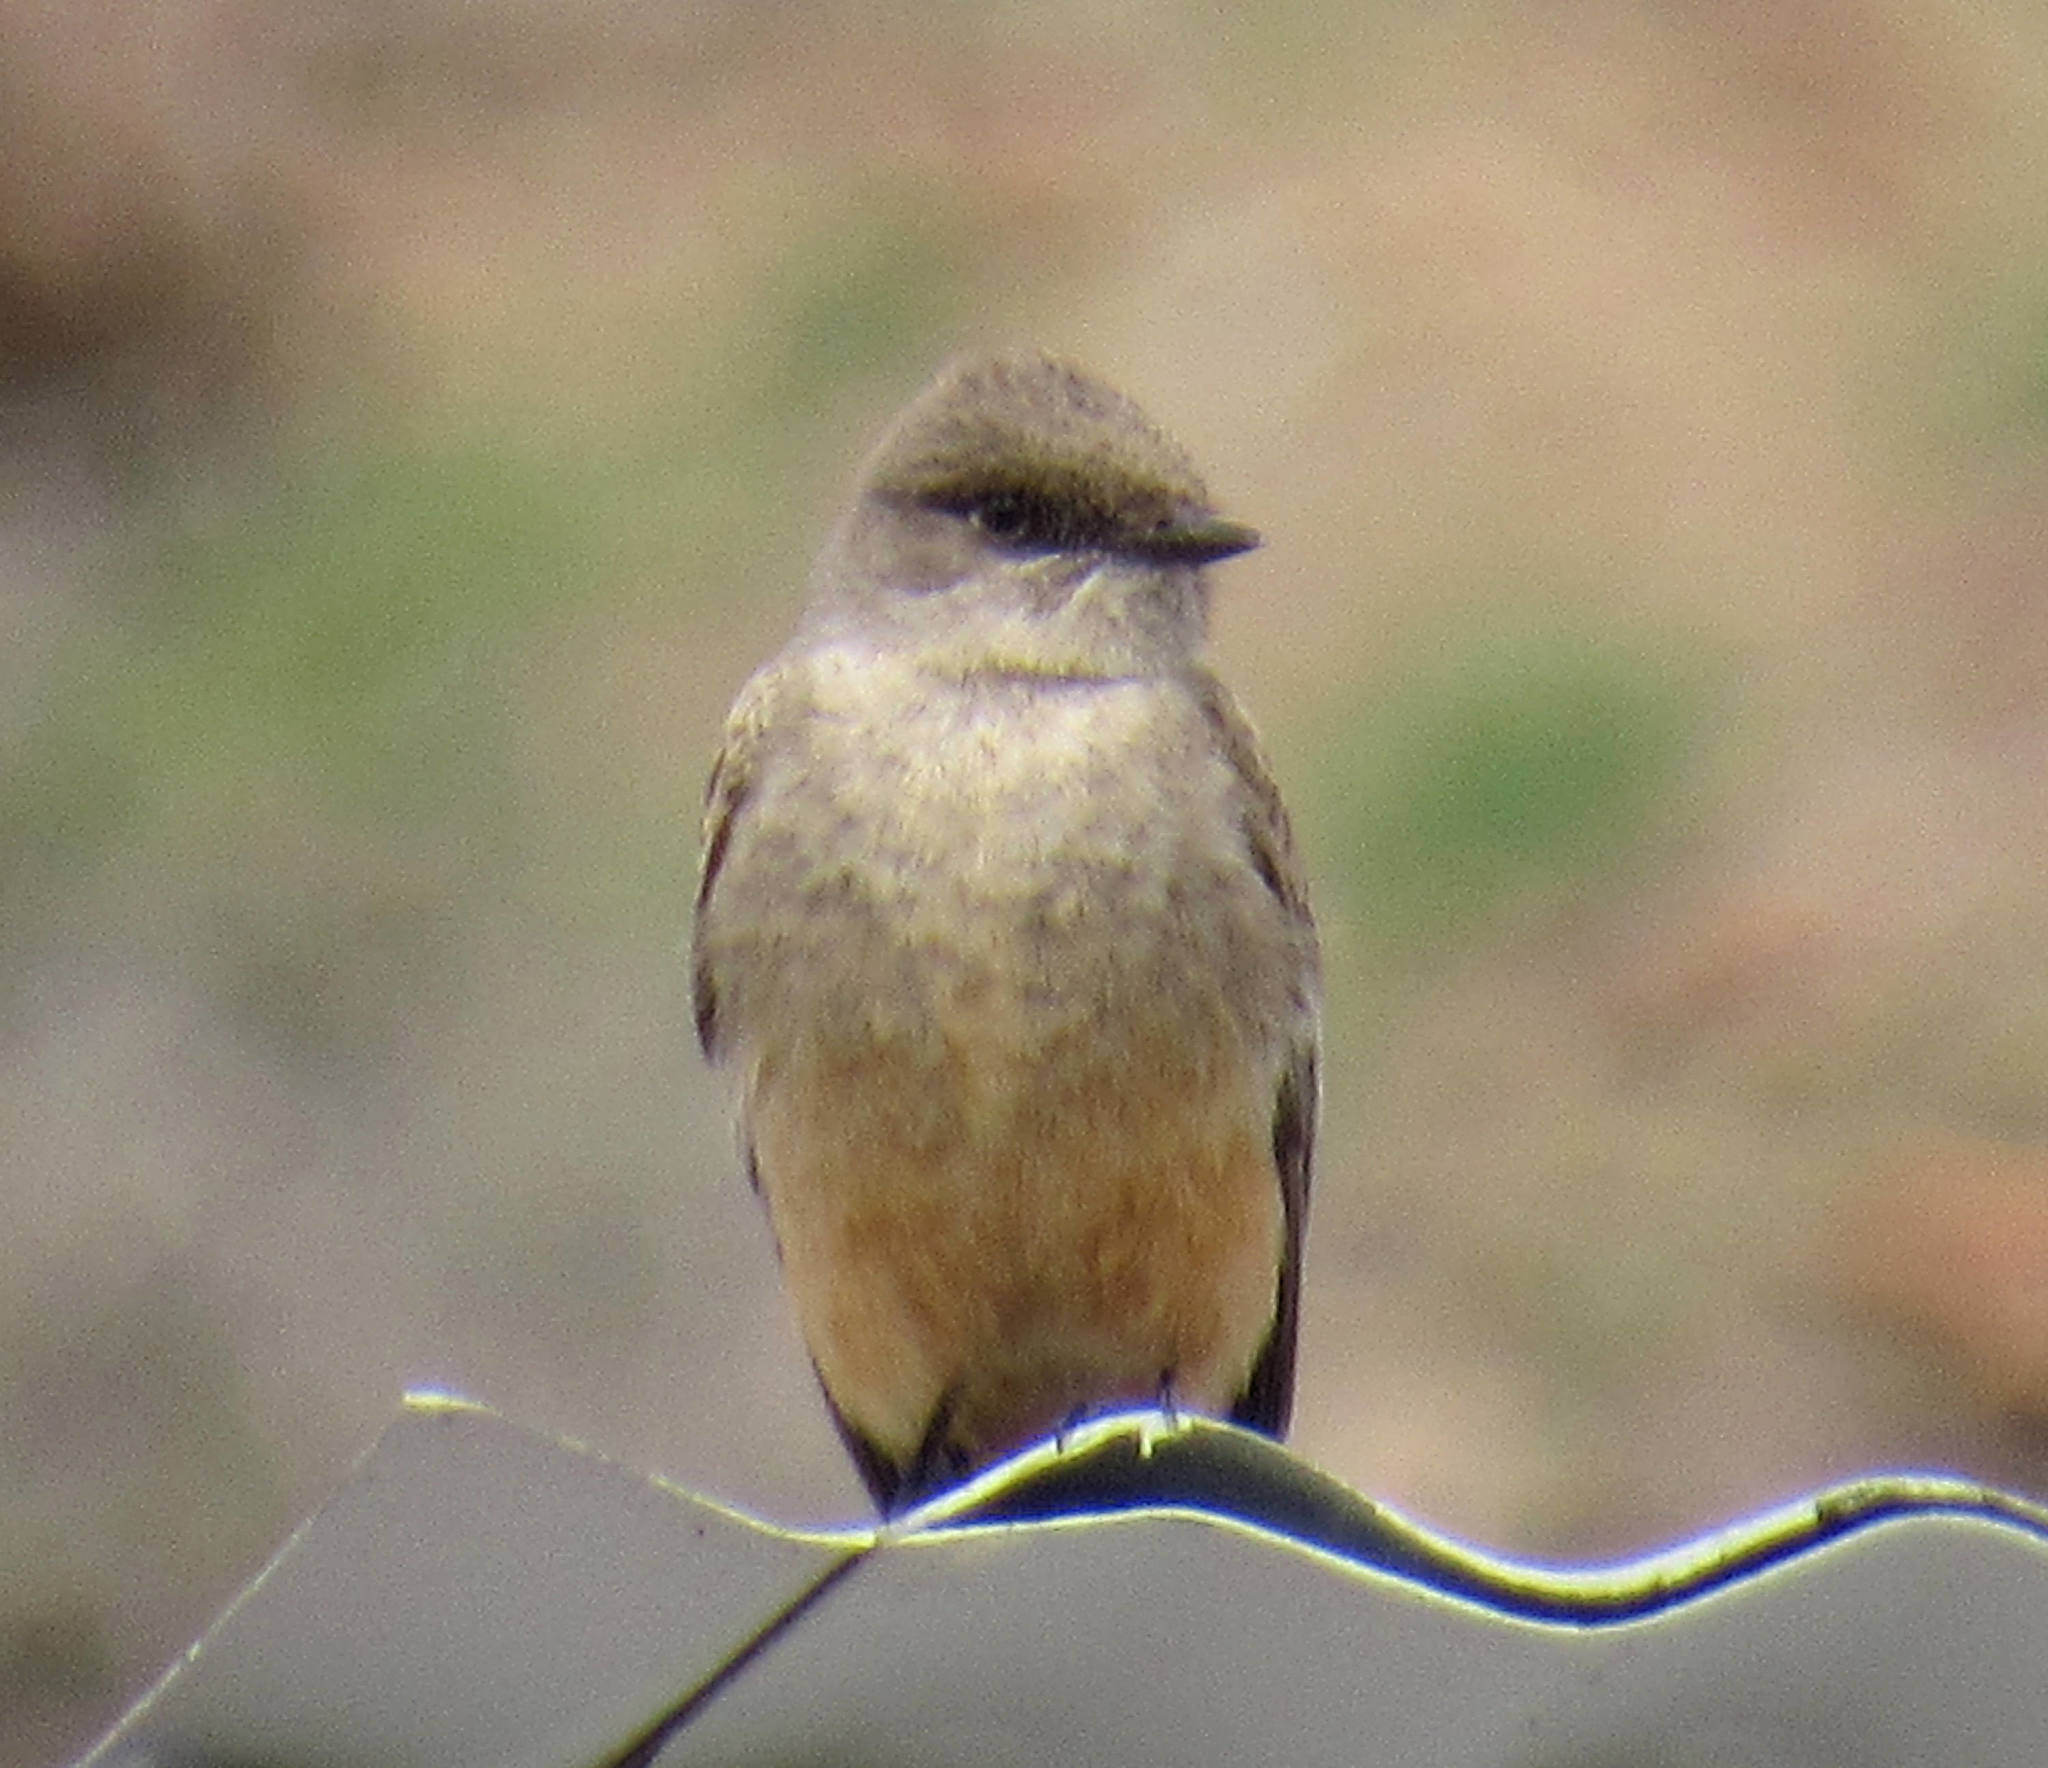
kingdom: Animalia
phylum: Chordata
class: Aves
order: Passeriformes
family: Tyrannidae
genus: Sayornis
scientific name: Sayornis saya
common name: Say's phoebe
